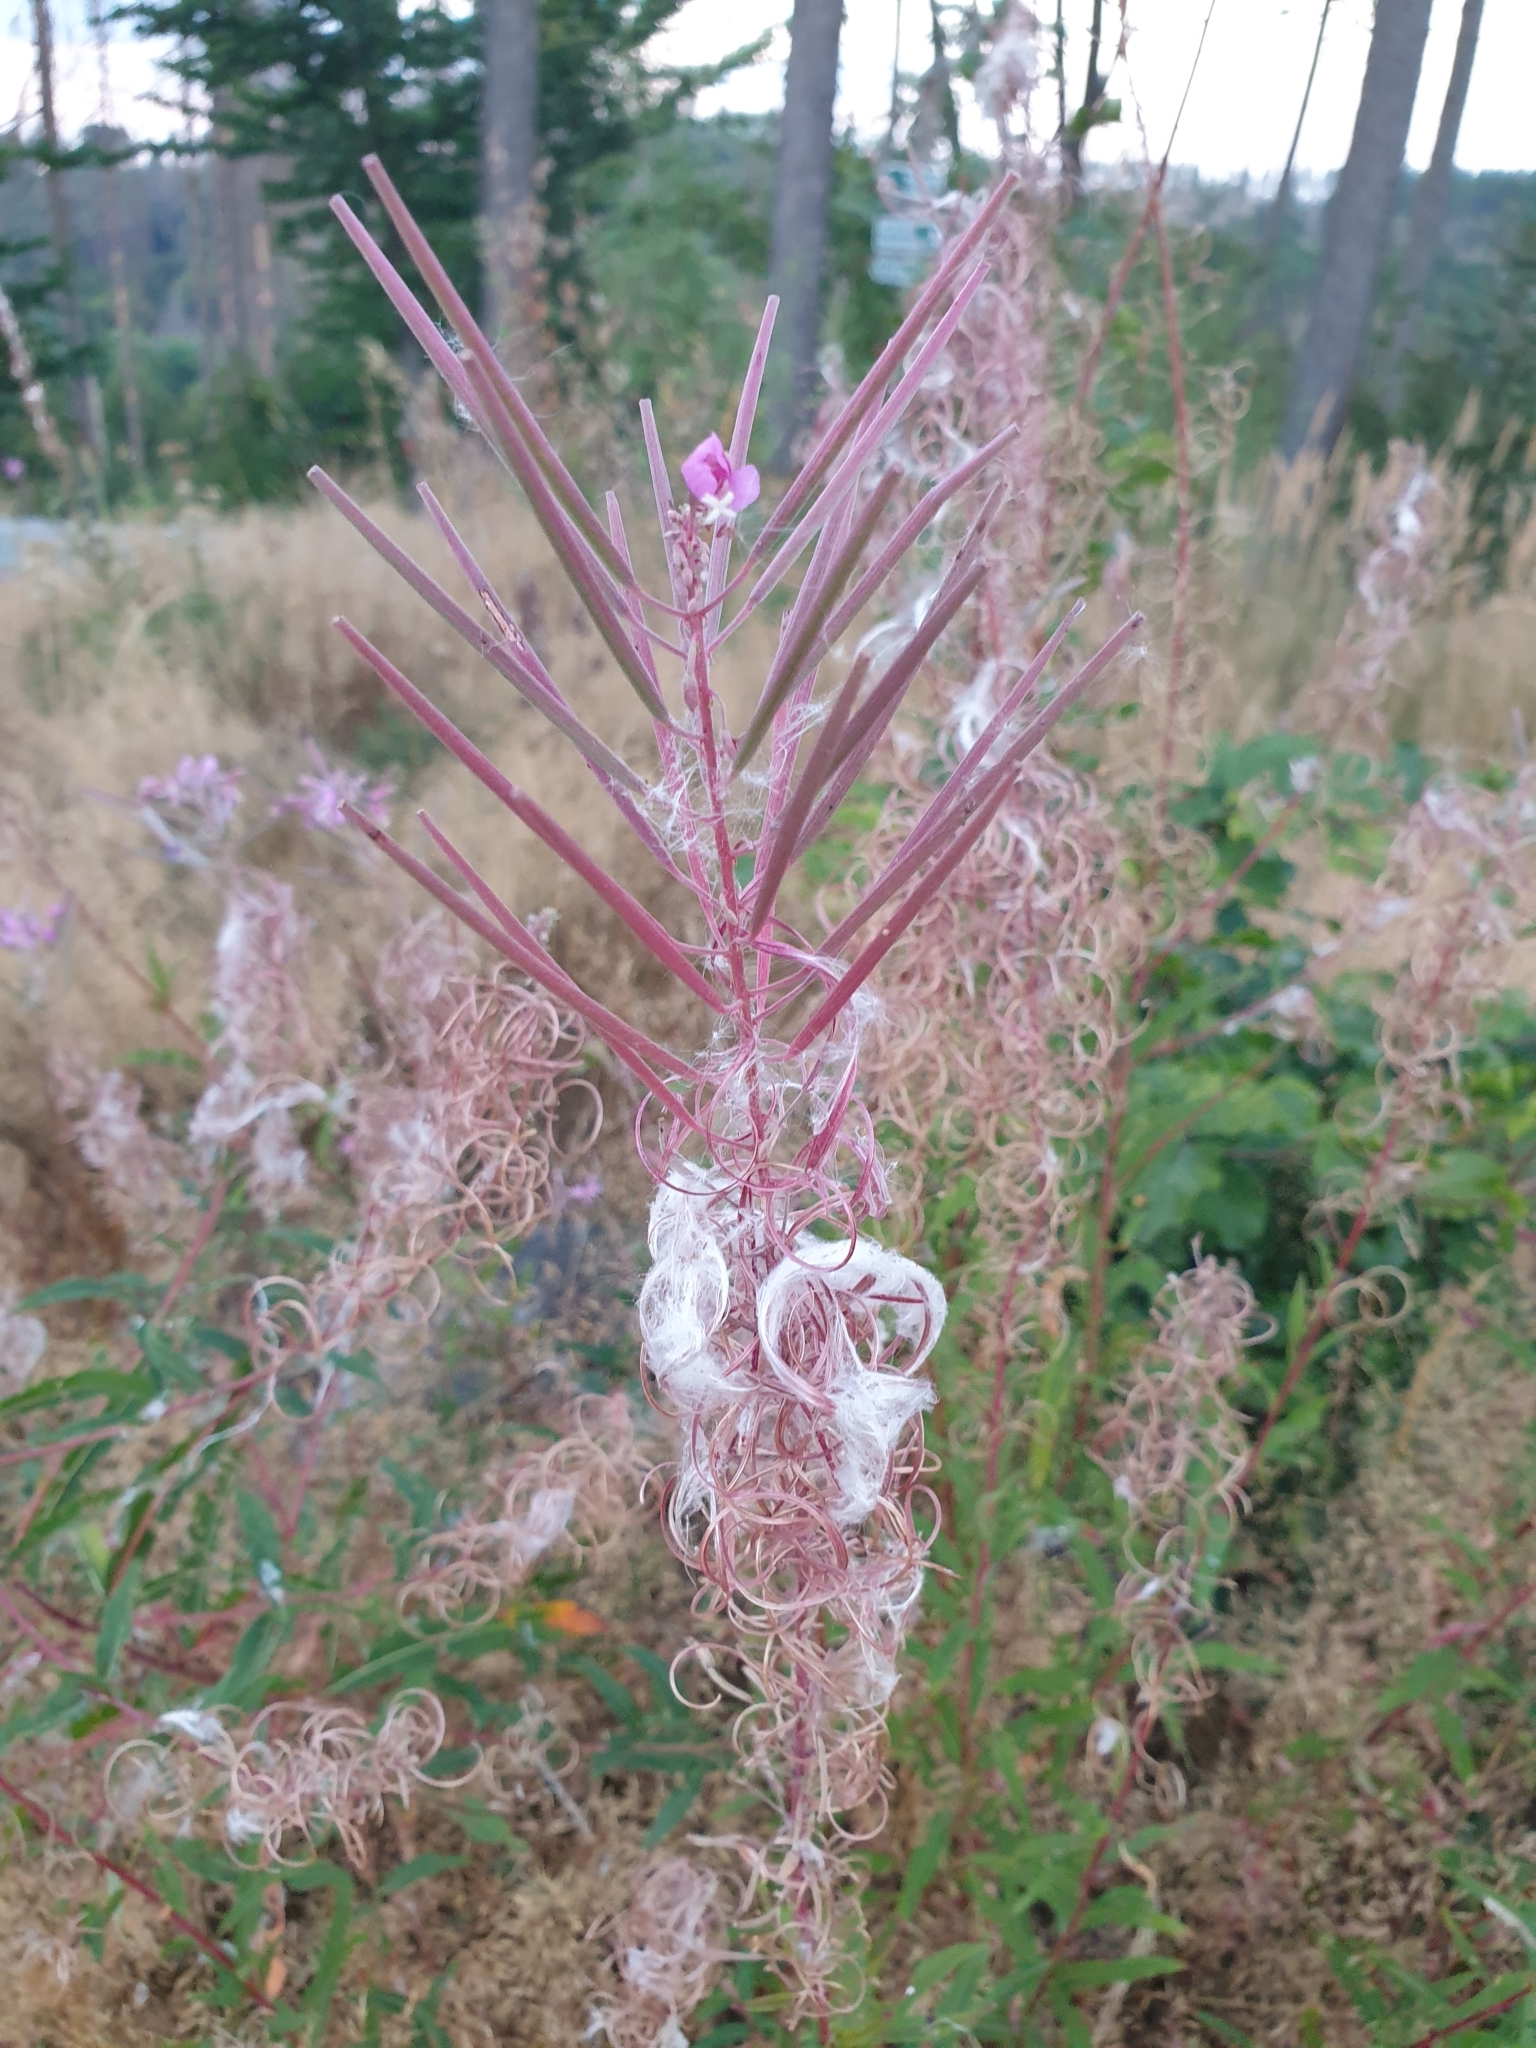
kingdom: Plantae
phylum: Tracheophyta
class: Magnoliopsida
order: Myrtales
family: Onagraceae
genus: Chamaenerion
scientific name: Chamaenerion angustifolium
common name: Fireweed
